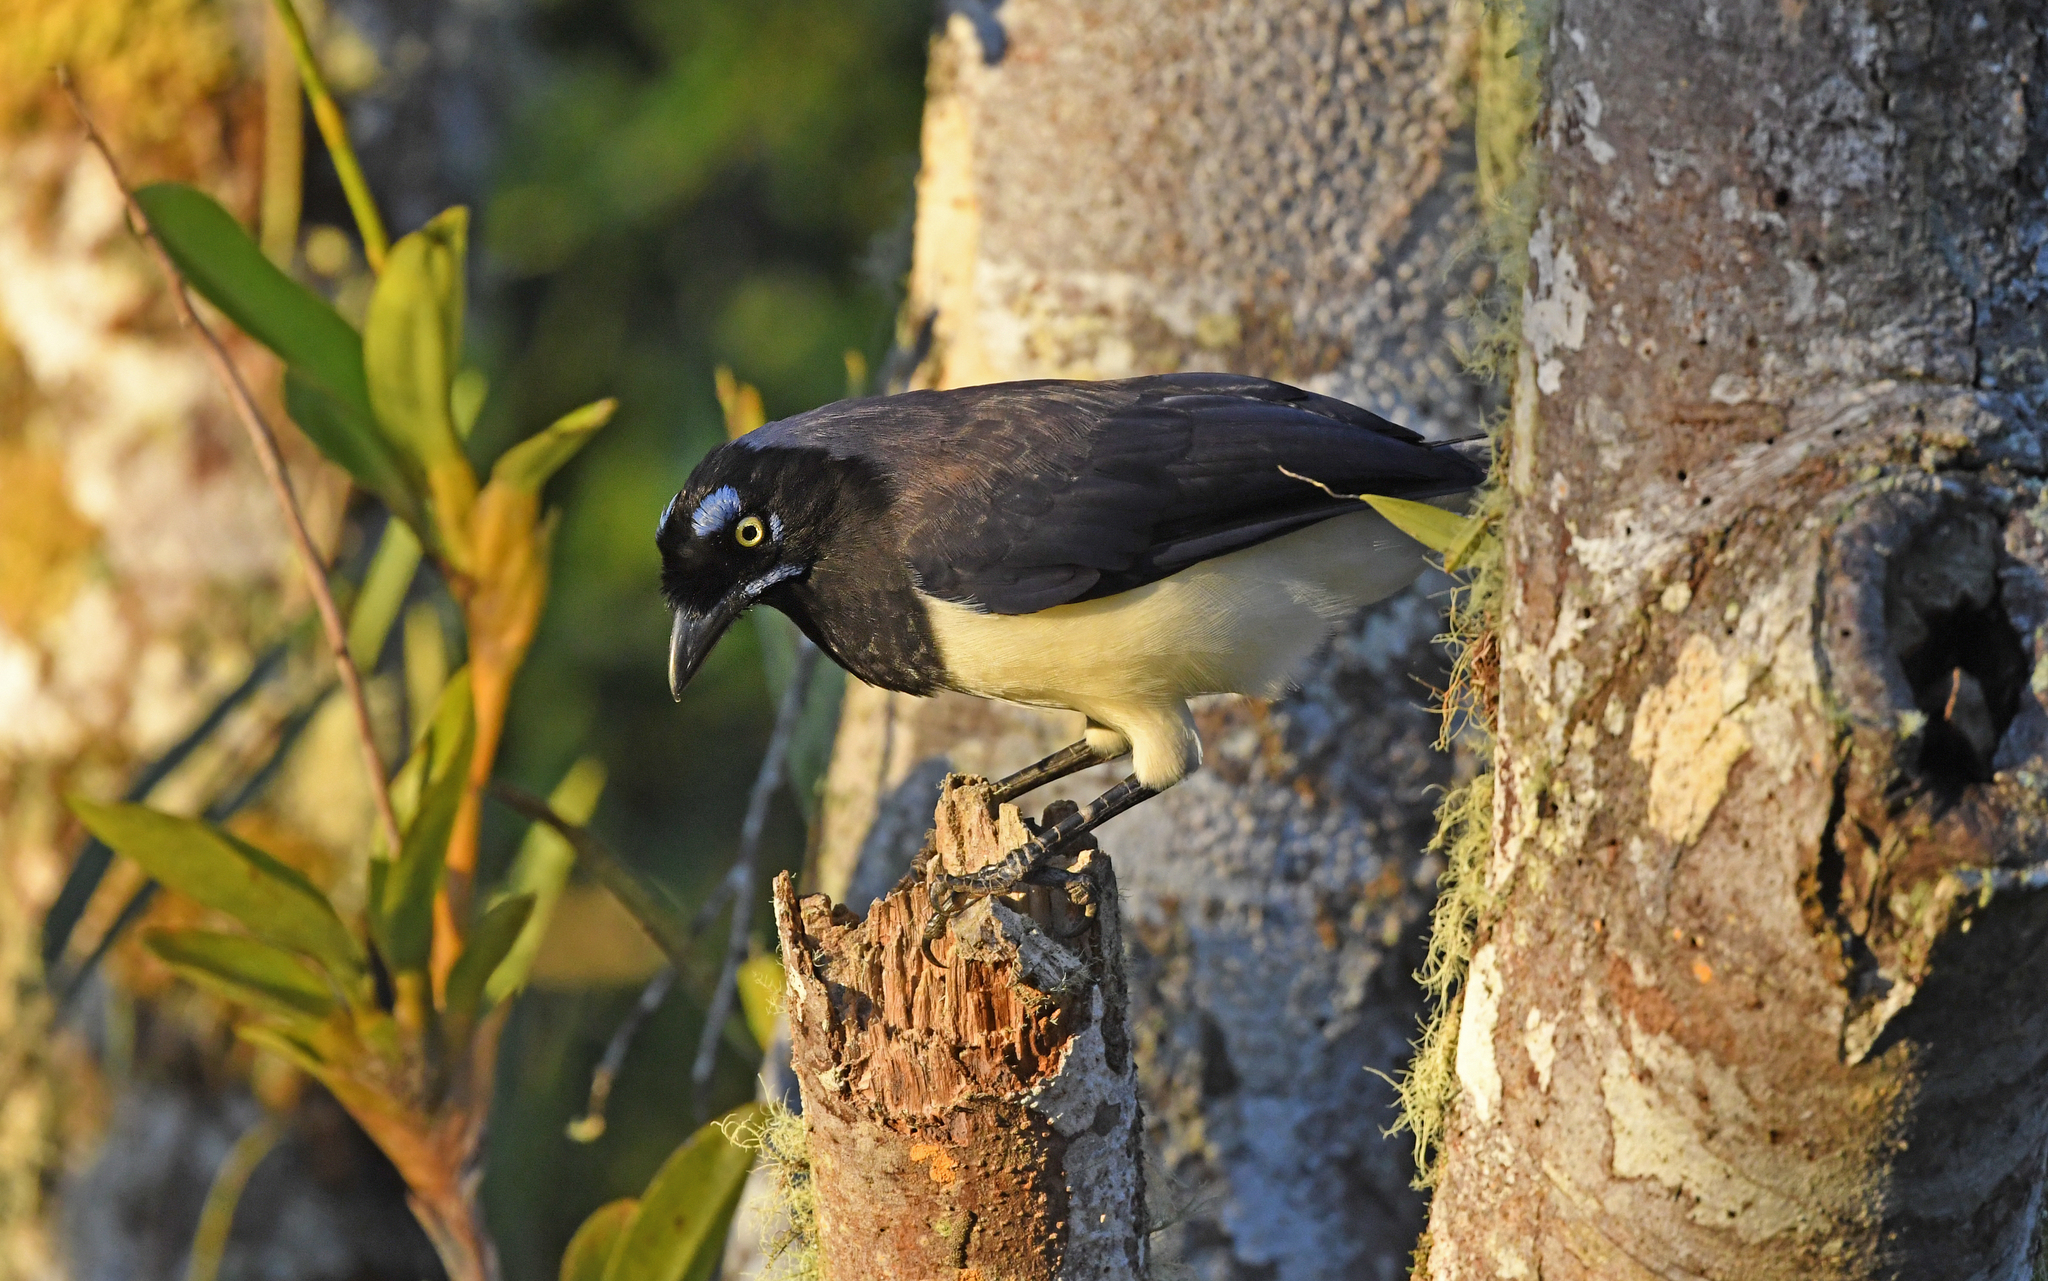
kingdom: Animalia
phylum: Chordata
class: Aves
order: Passeriformes
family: Corvidae
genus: Cyanocorax
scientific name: Cyanocorax affinis
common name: Black-chested jay
